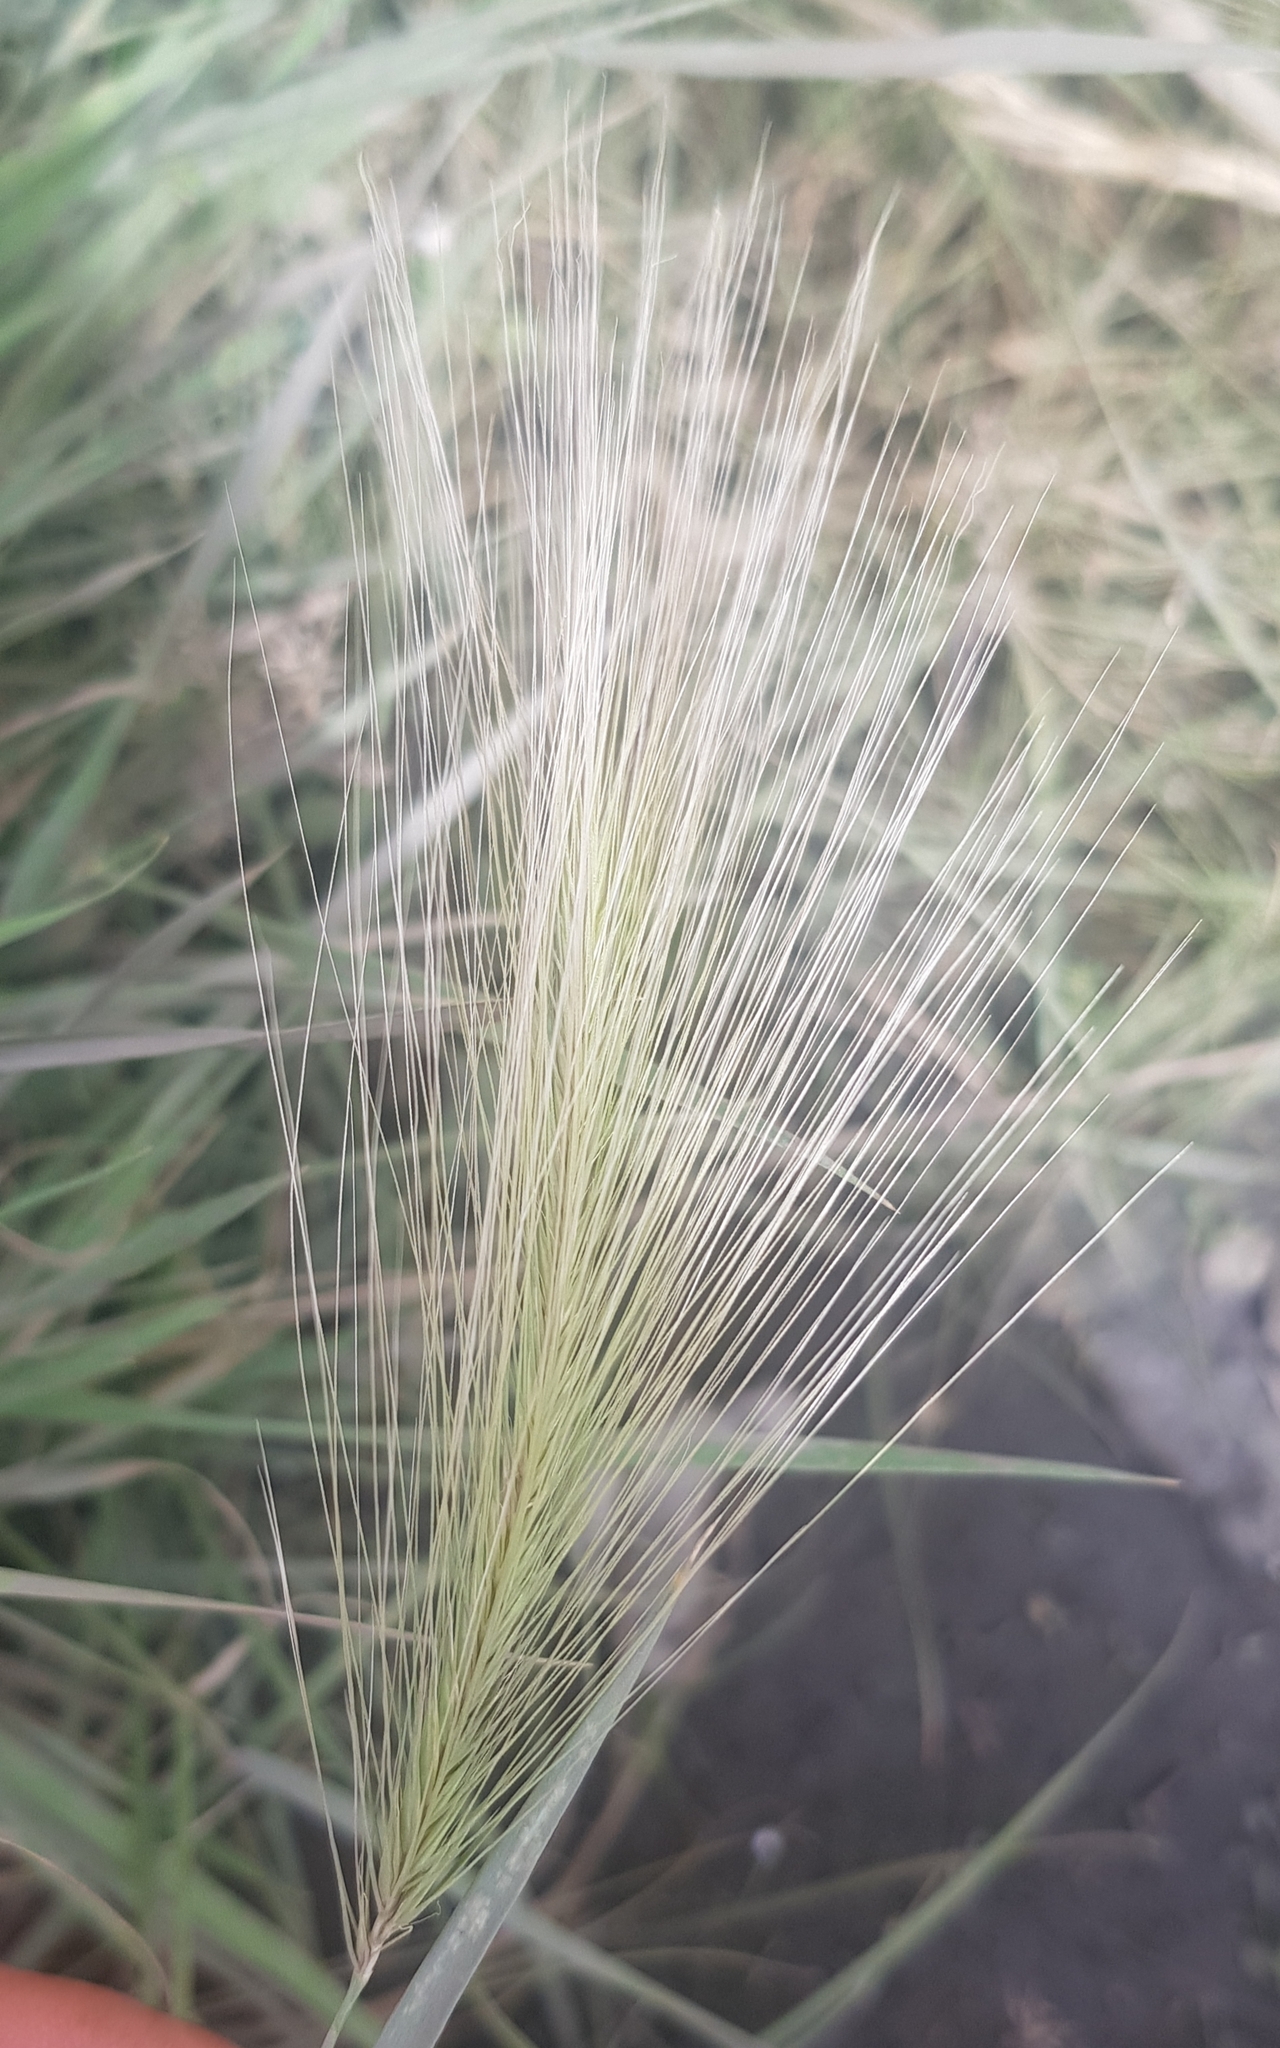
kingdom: Plantae
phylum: Tracheophyta
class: Liliopsida
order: Poales
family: Poaceae
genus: Hordeum
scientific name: Hordeum jubatum
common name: Foxtail barley
